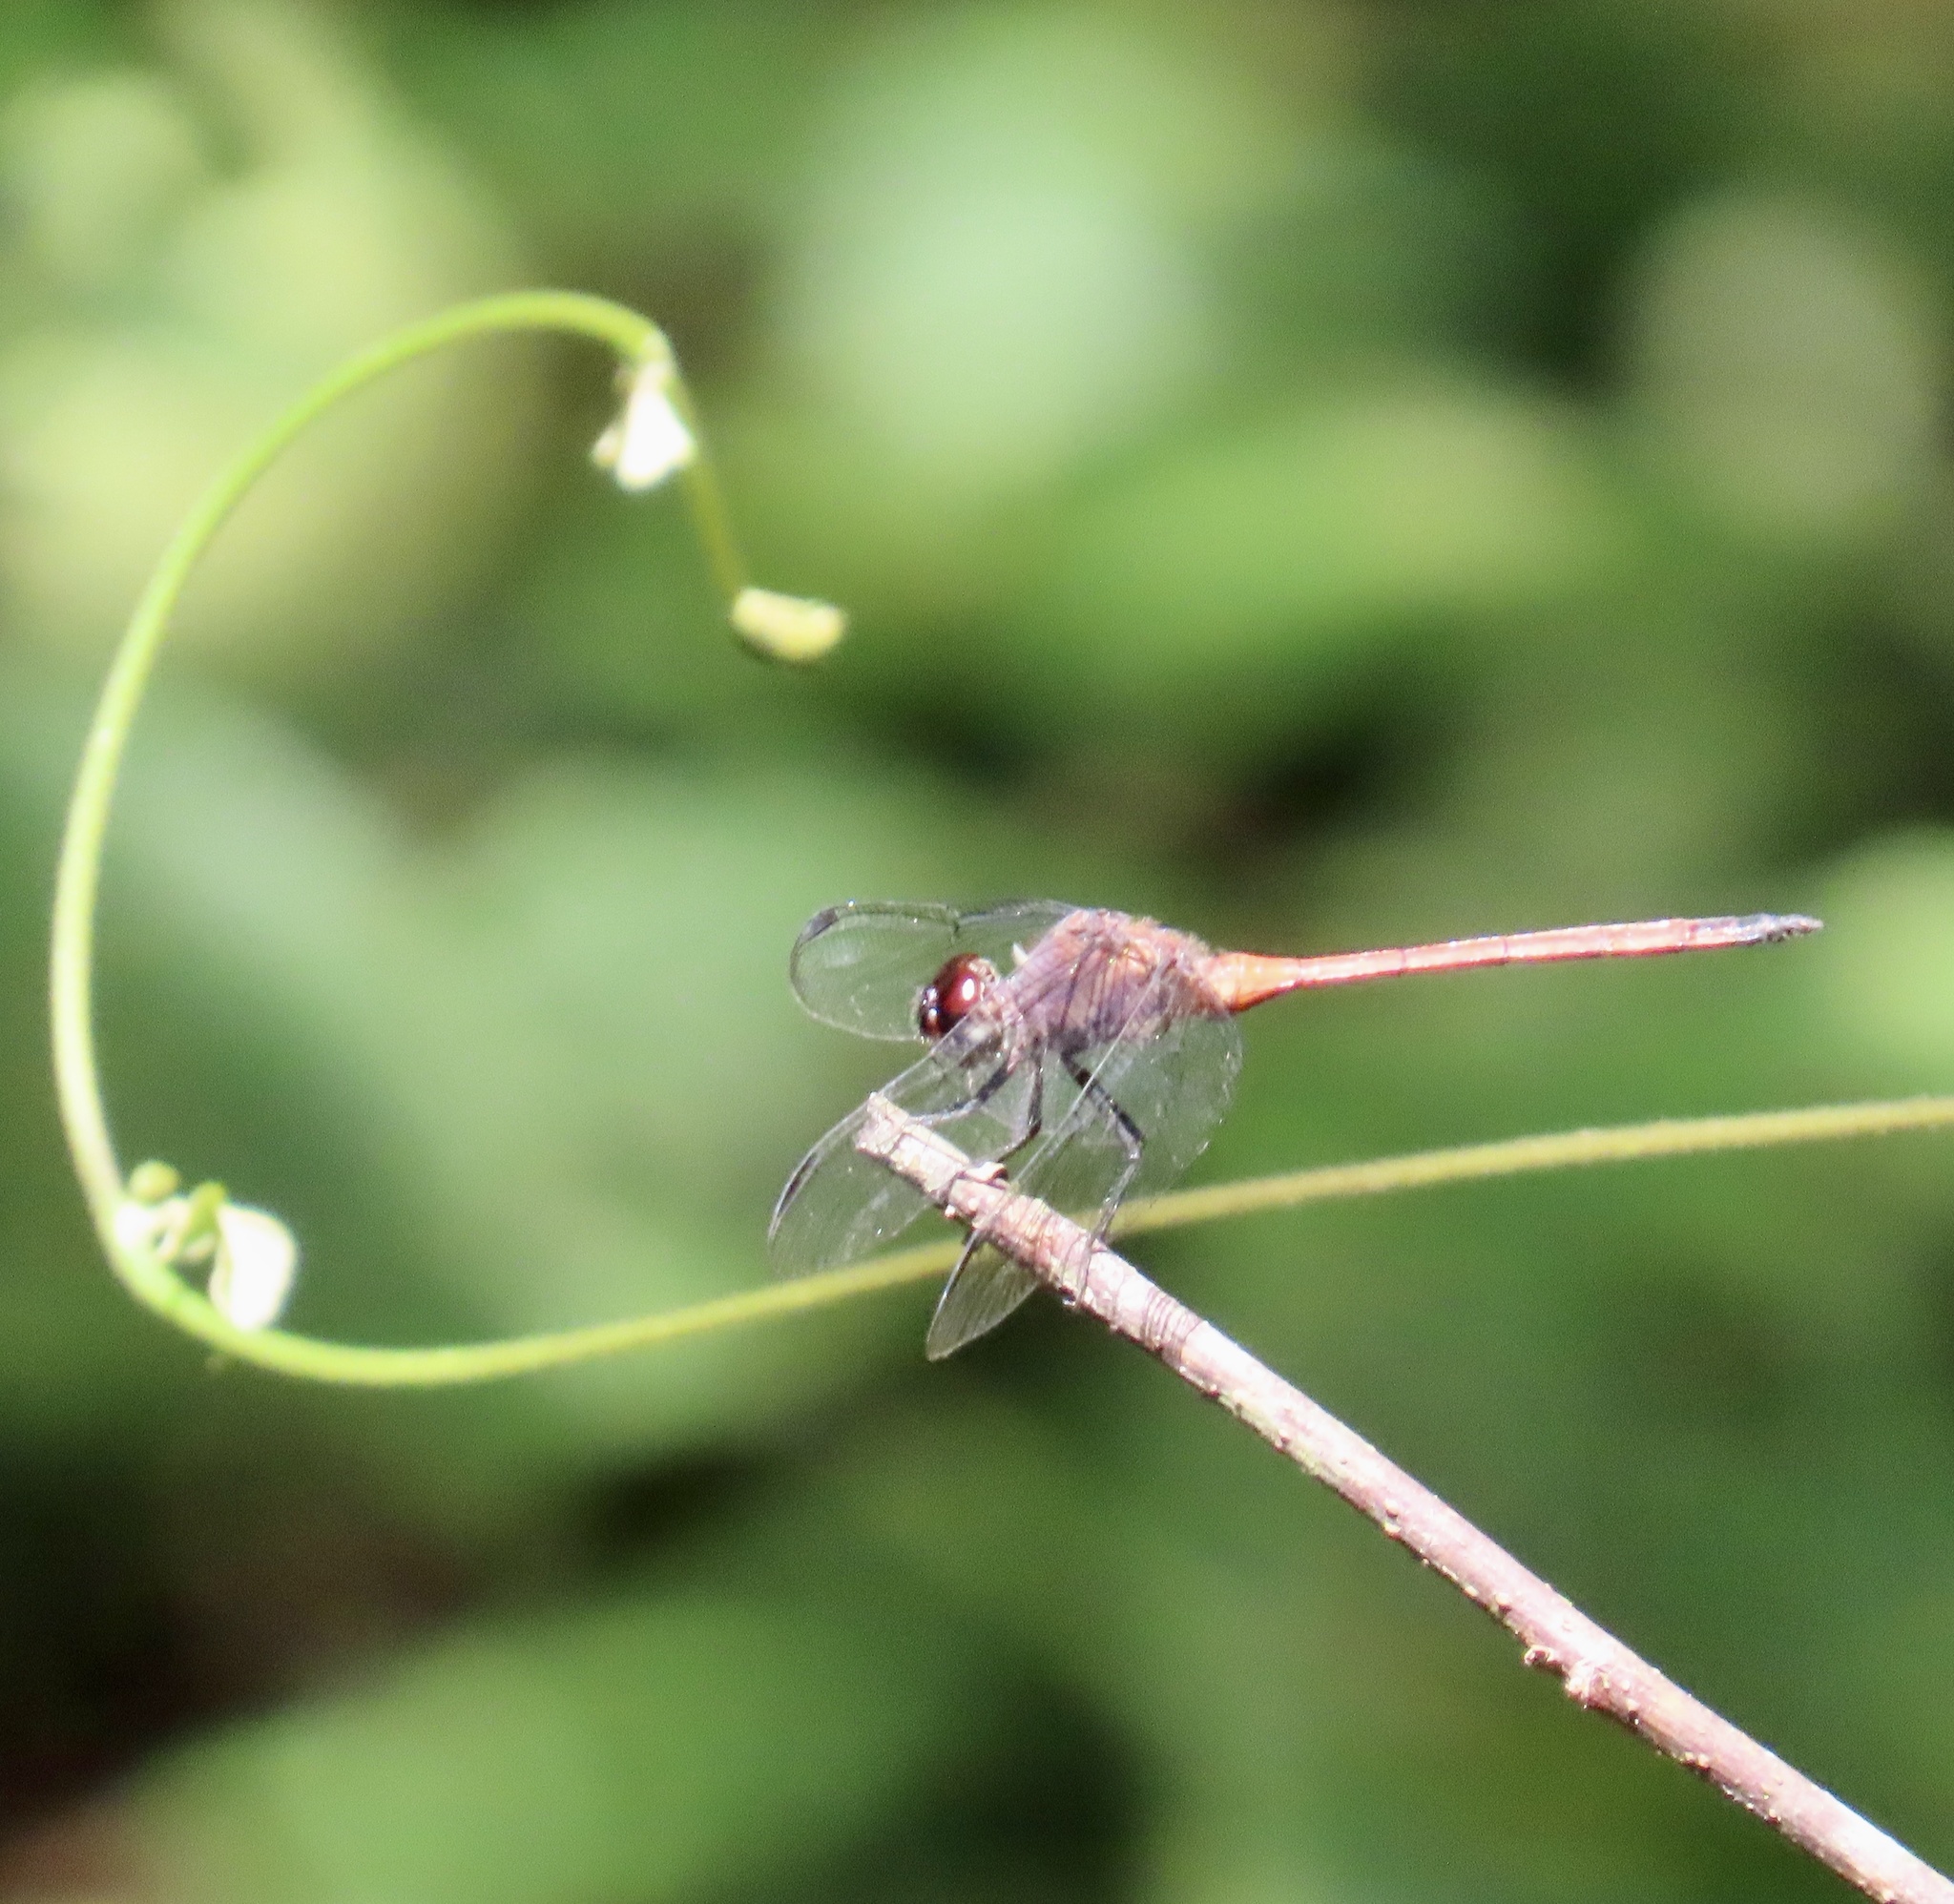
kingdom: Animalia
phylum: Arthropoda
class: Insecta
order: Odonata
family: Libellulidae
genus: Orthemis
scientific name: Orthemis levis
